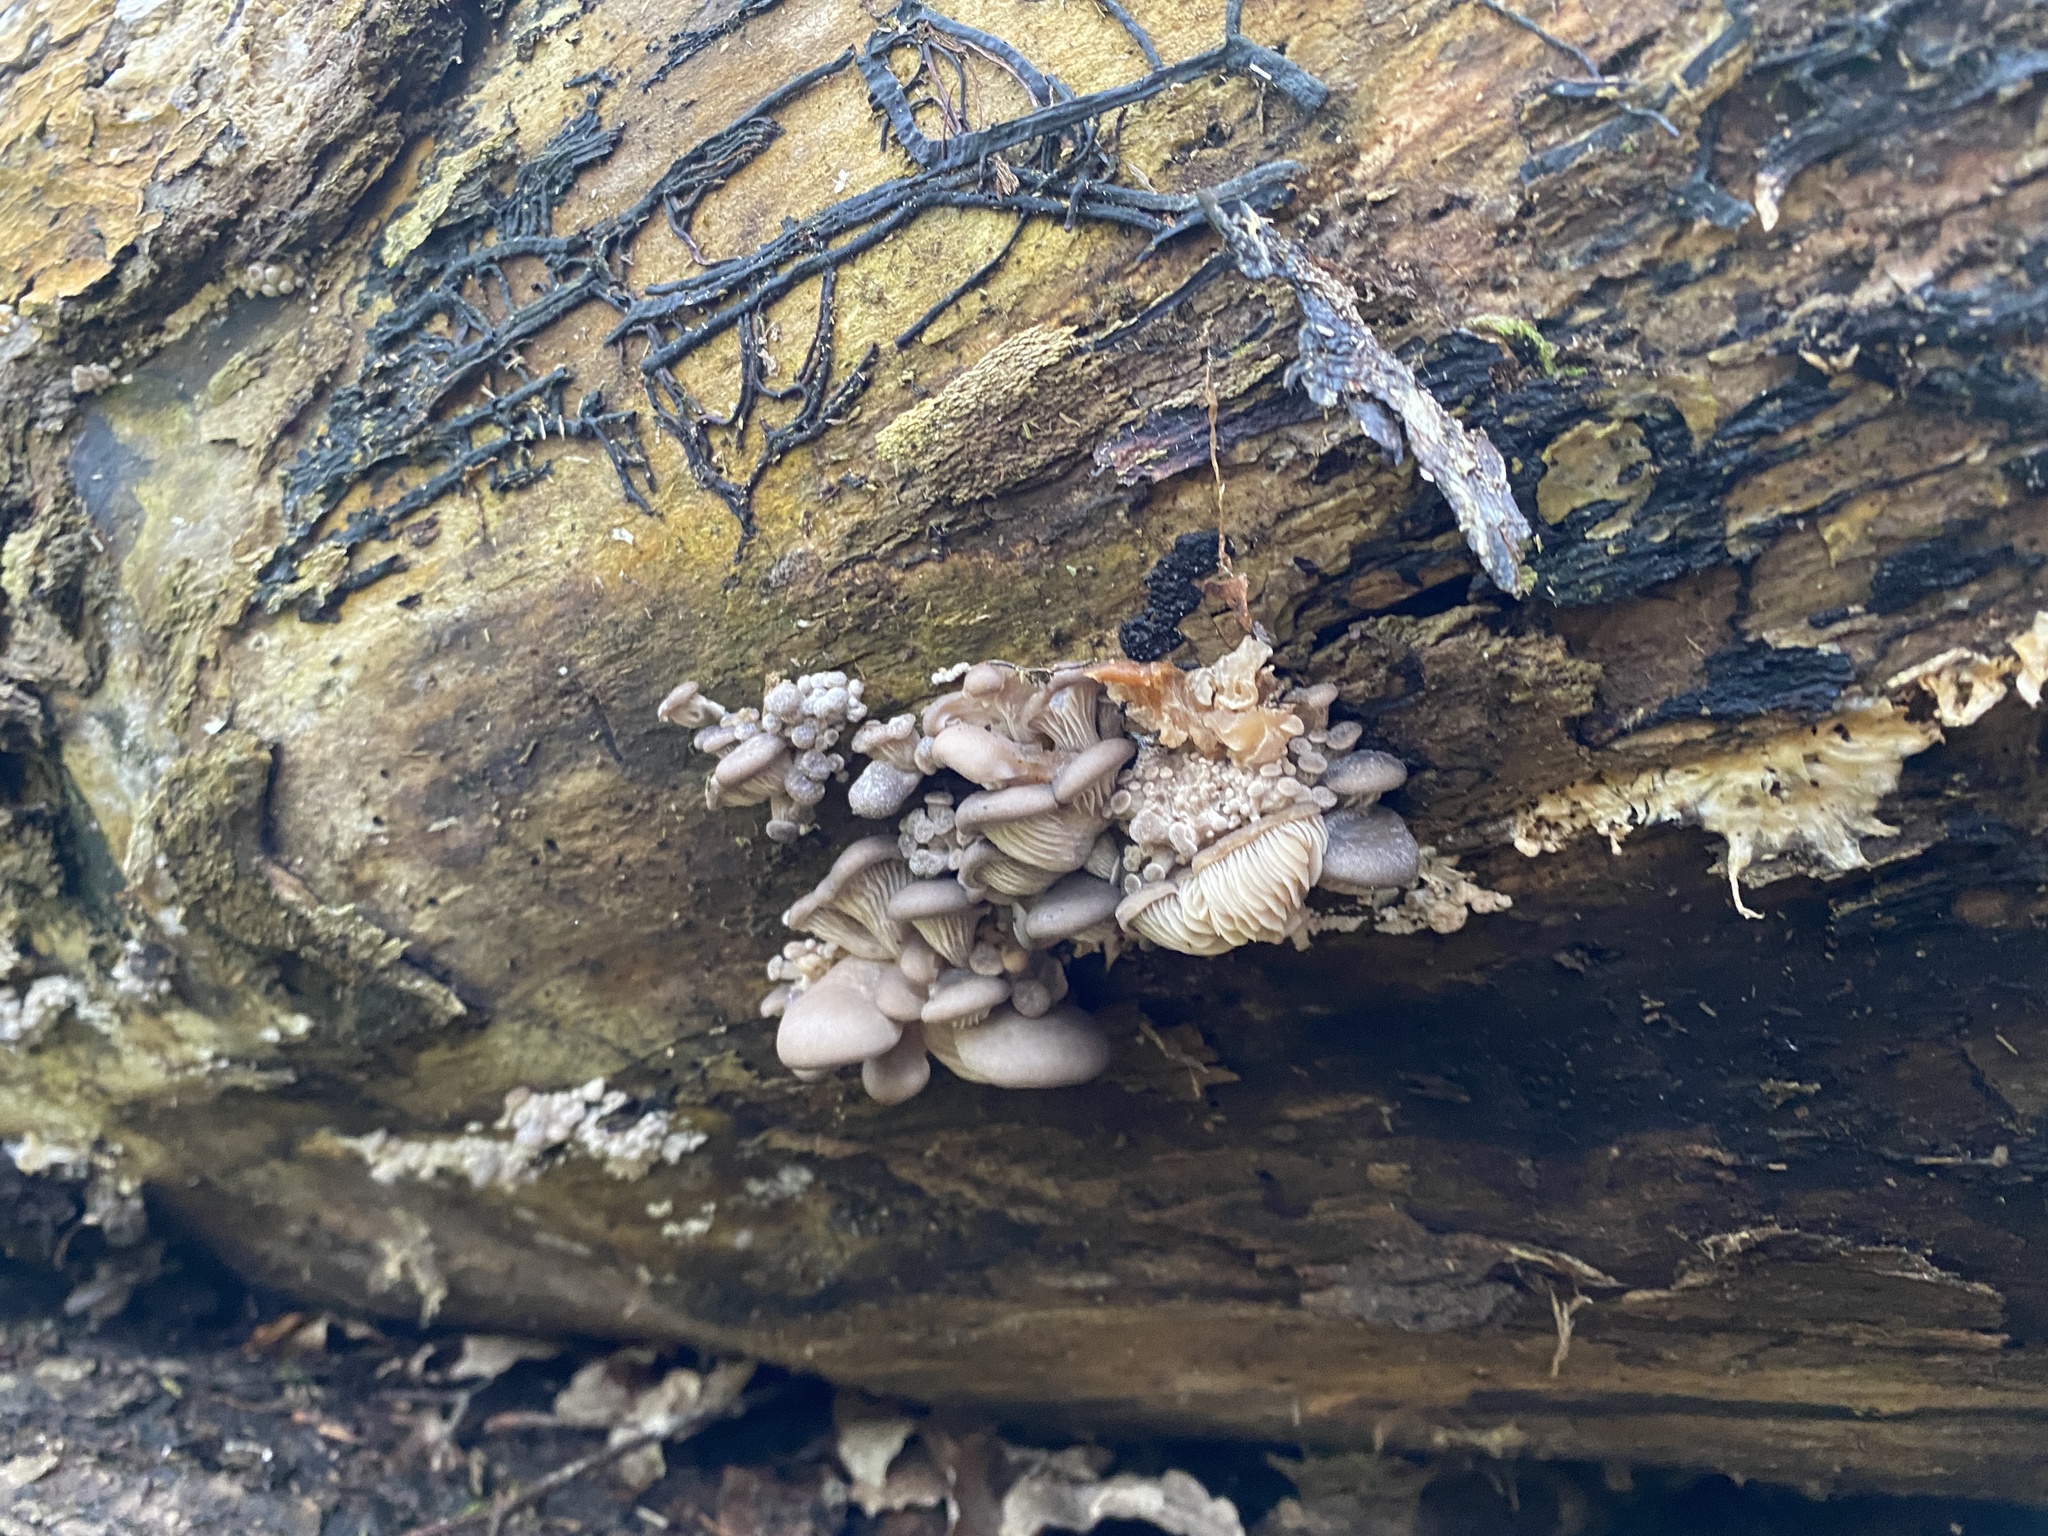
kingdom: Fungi
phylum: Basidiomycota
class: Agaricomycetes
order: Agaricales
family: Pleurotaceae
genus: Pleurotus
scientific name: Pleurotus ostreatus
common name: Oyster mushroom
